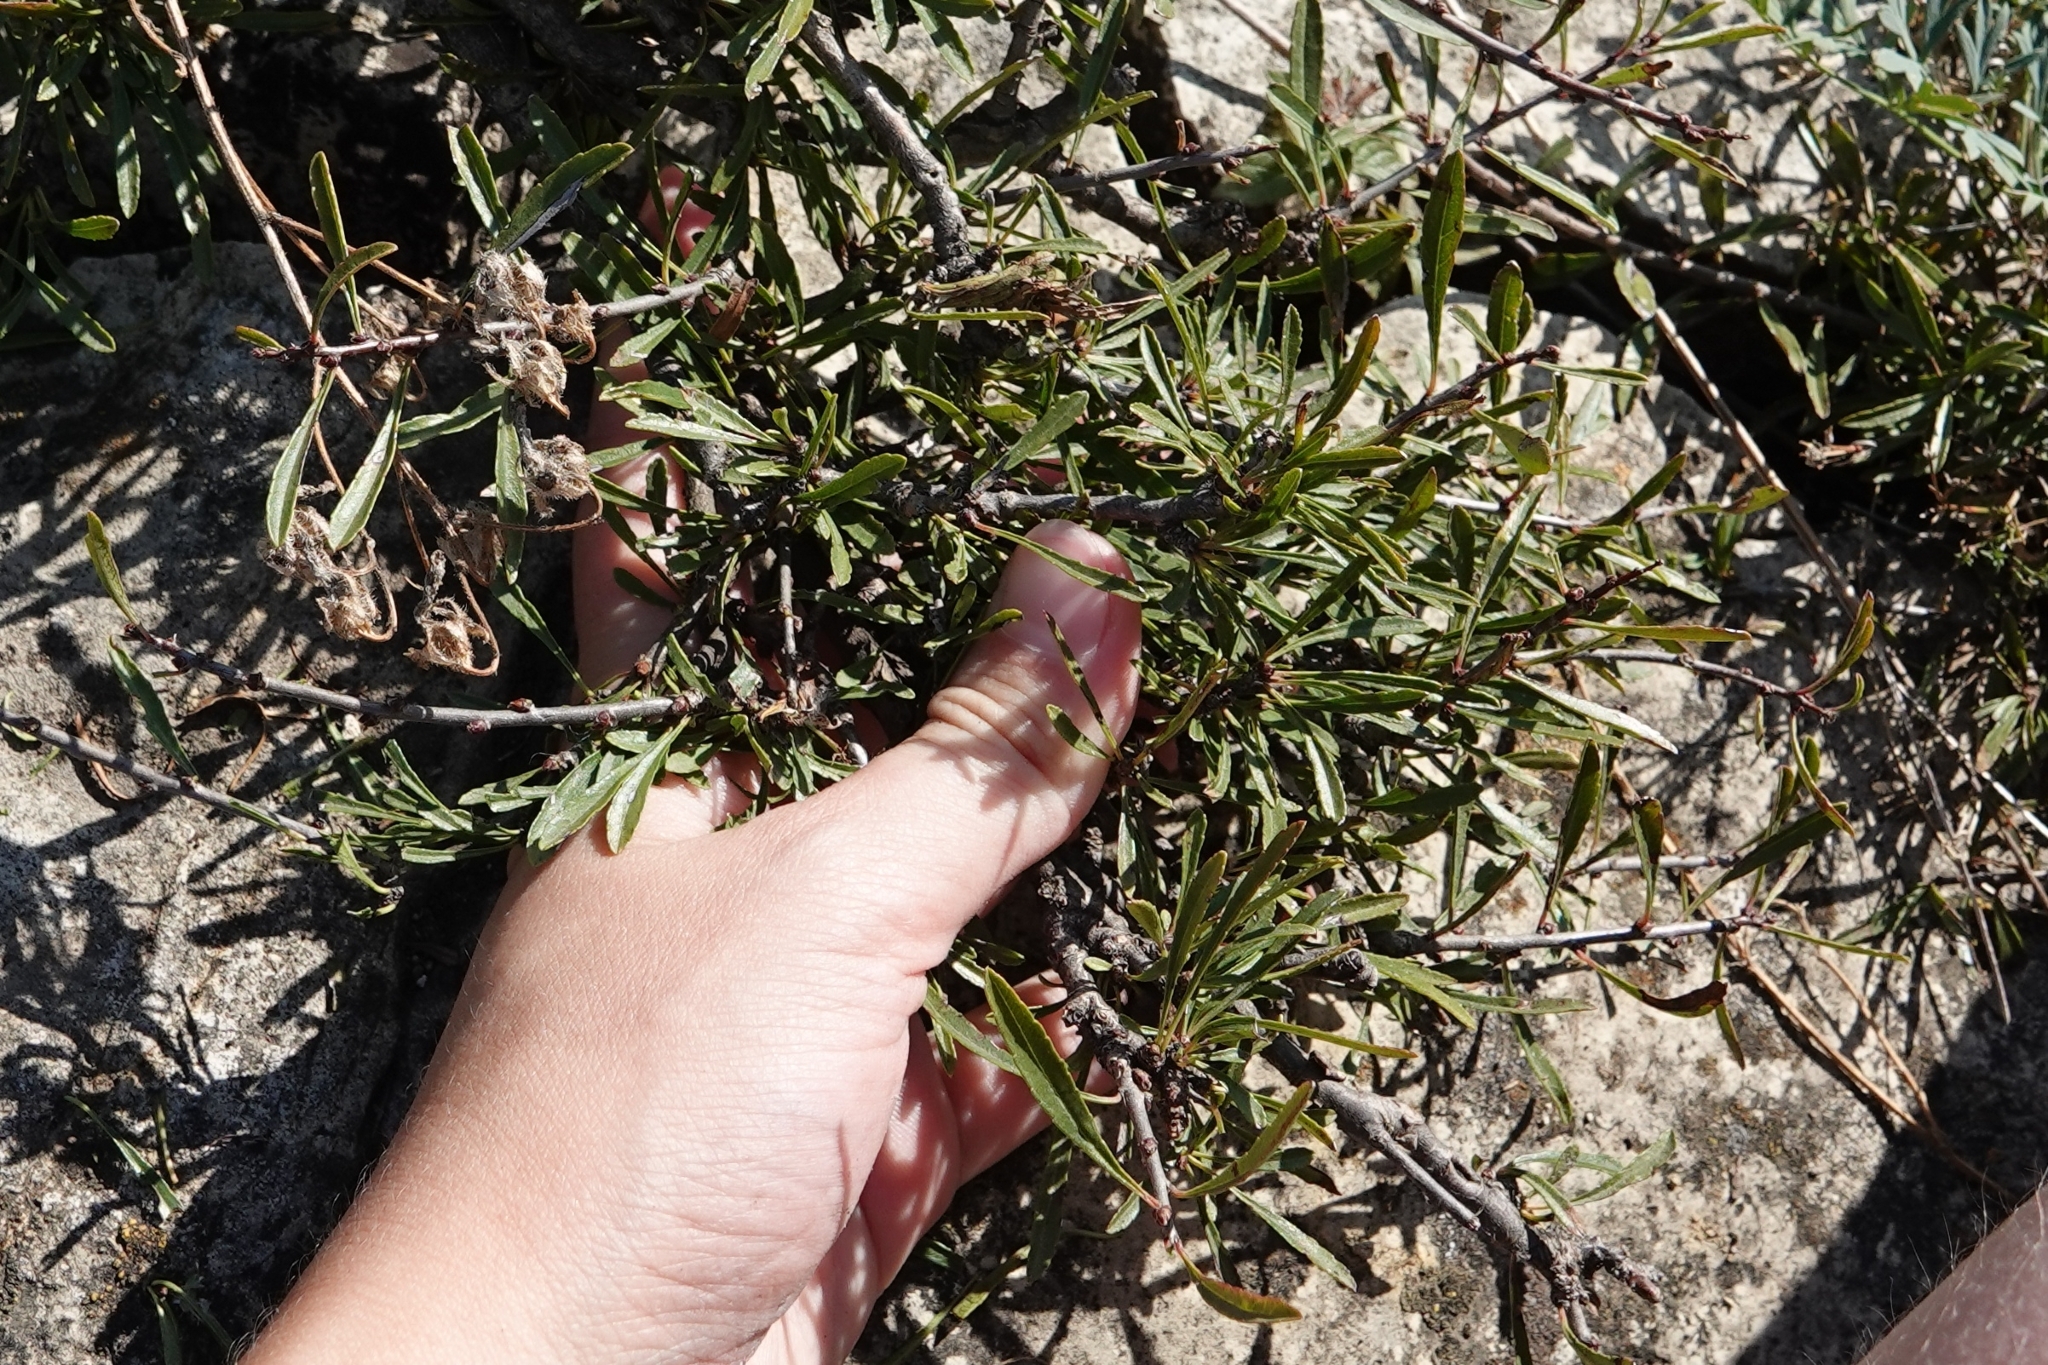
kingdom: Plantae
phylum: Tracheophyta
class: Magnoliopsida
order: Rosales
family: Rhamnaceae
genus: Rhamnus
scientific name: Rhamnus erythroxyloides
